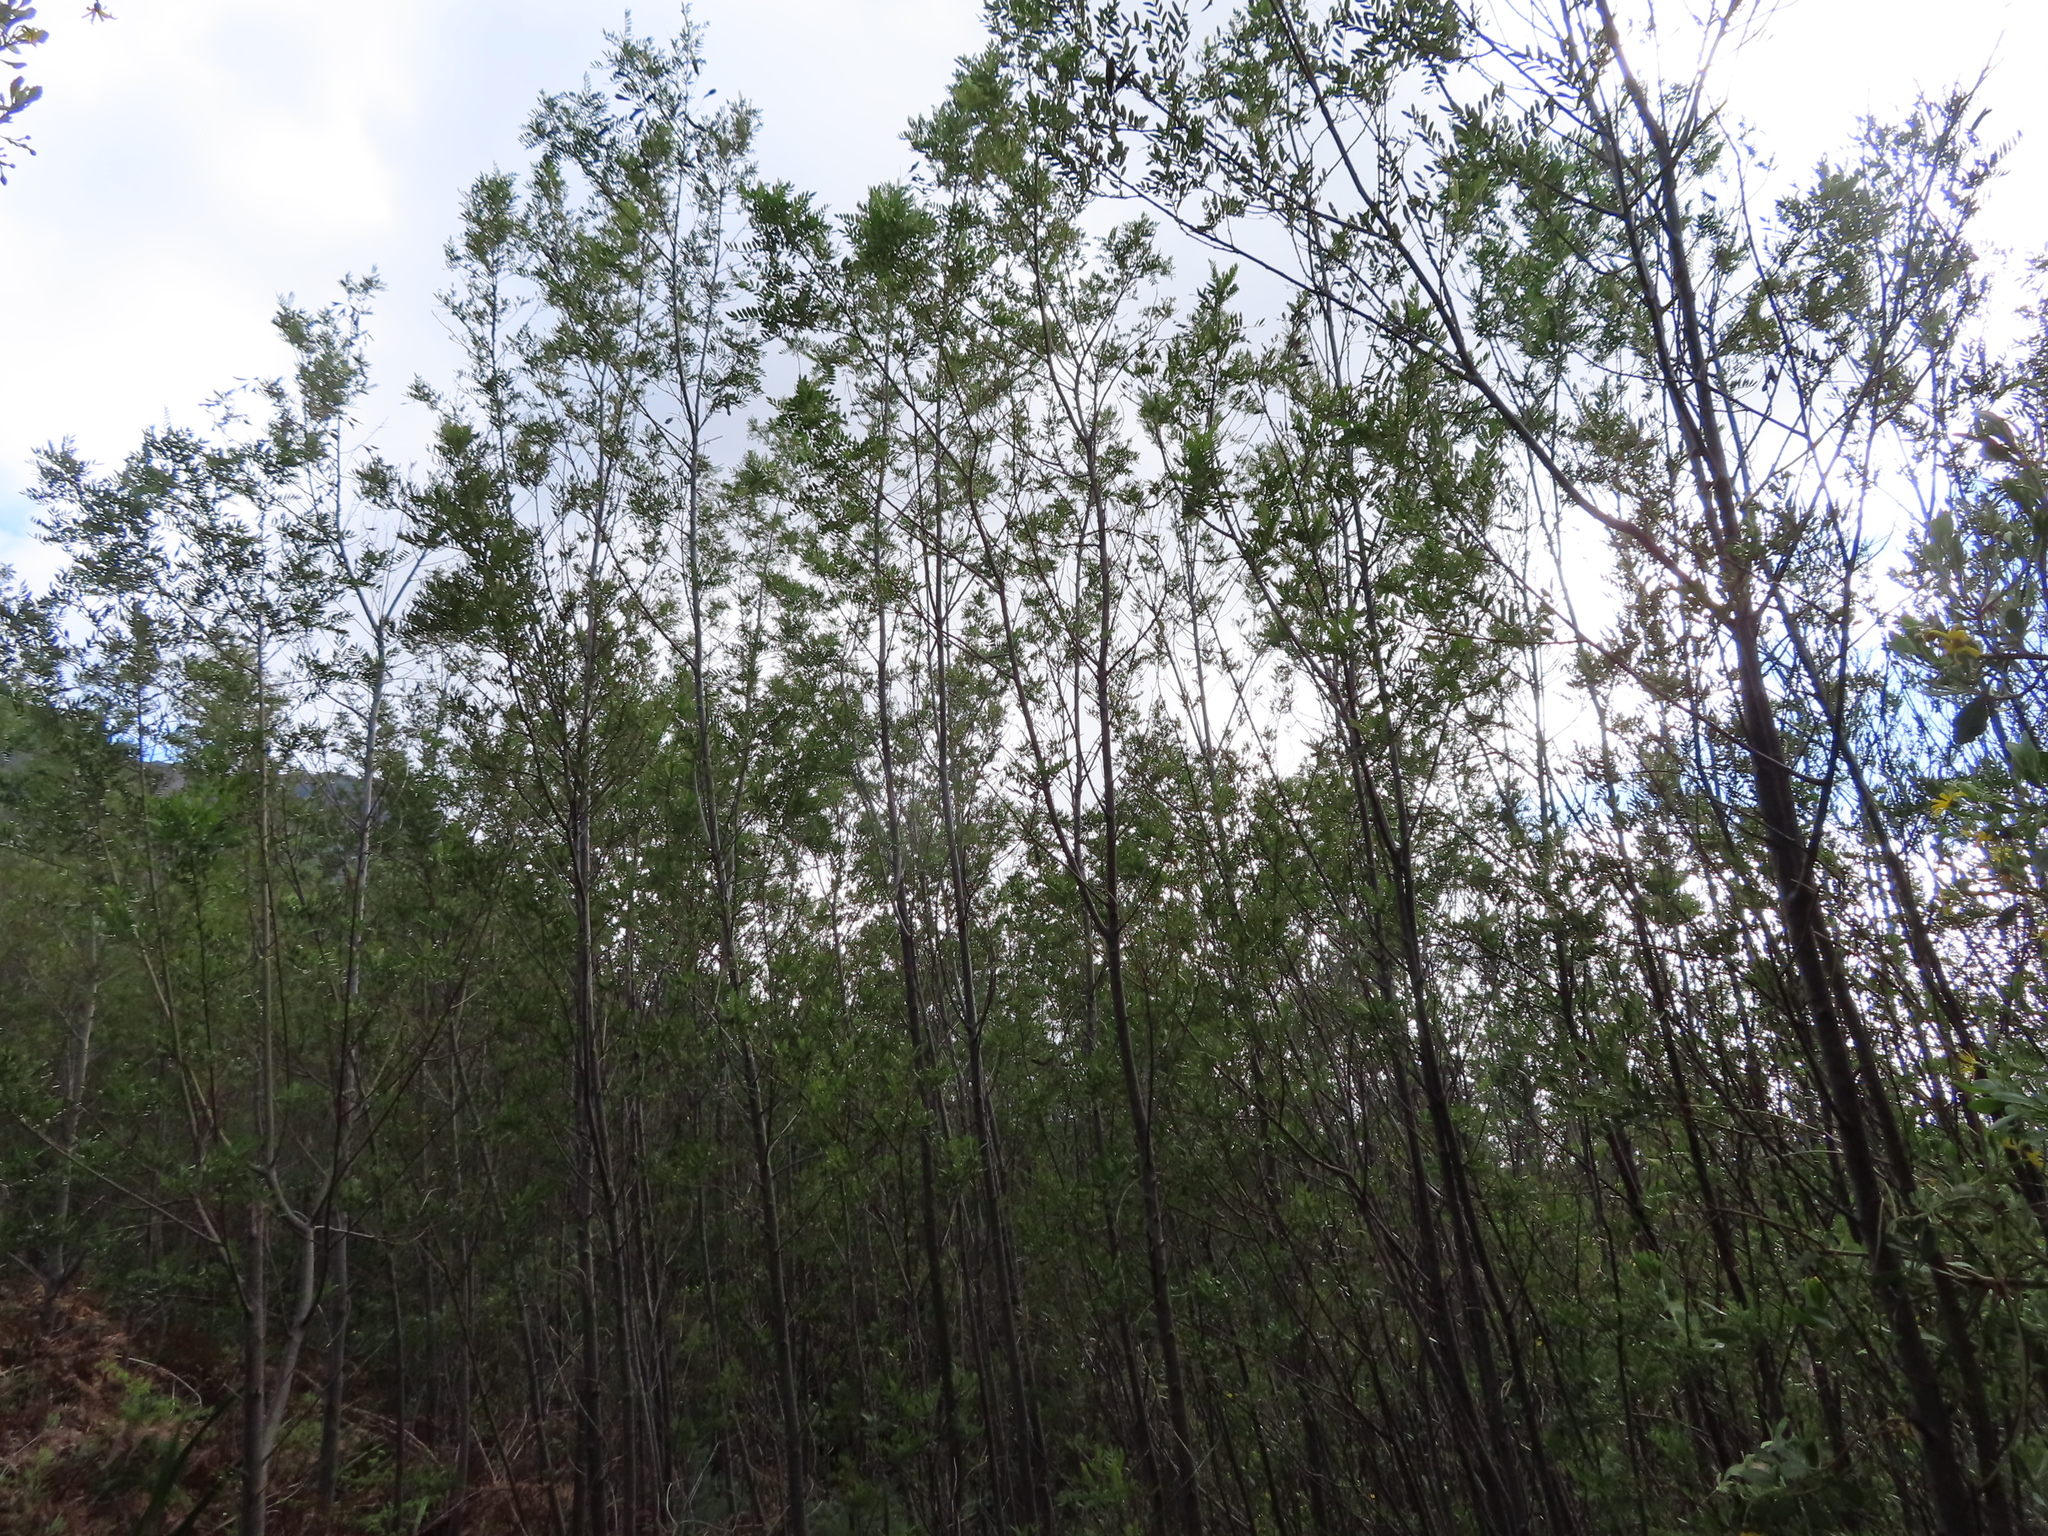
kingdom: Plantae
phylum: Tracheophyta
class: Magnoliopsida
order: Fabales
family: Fabaceae
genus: Virgilia
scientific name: Virgilia oroboides
